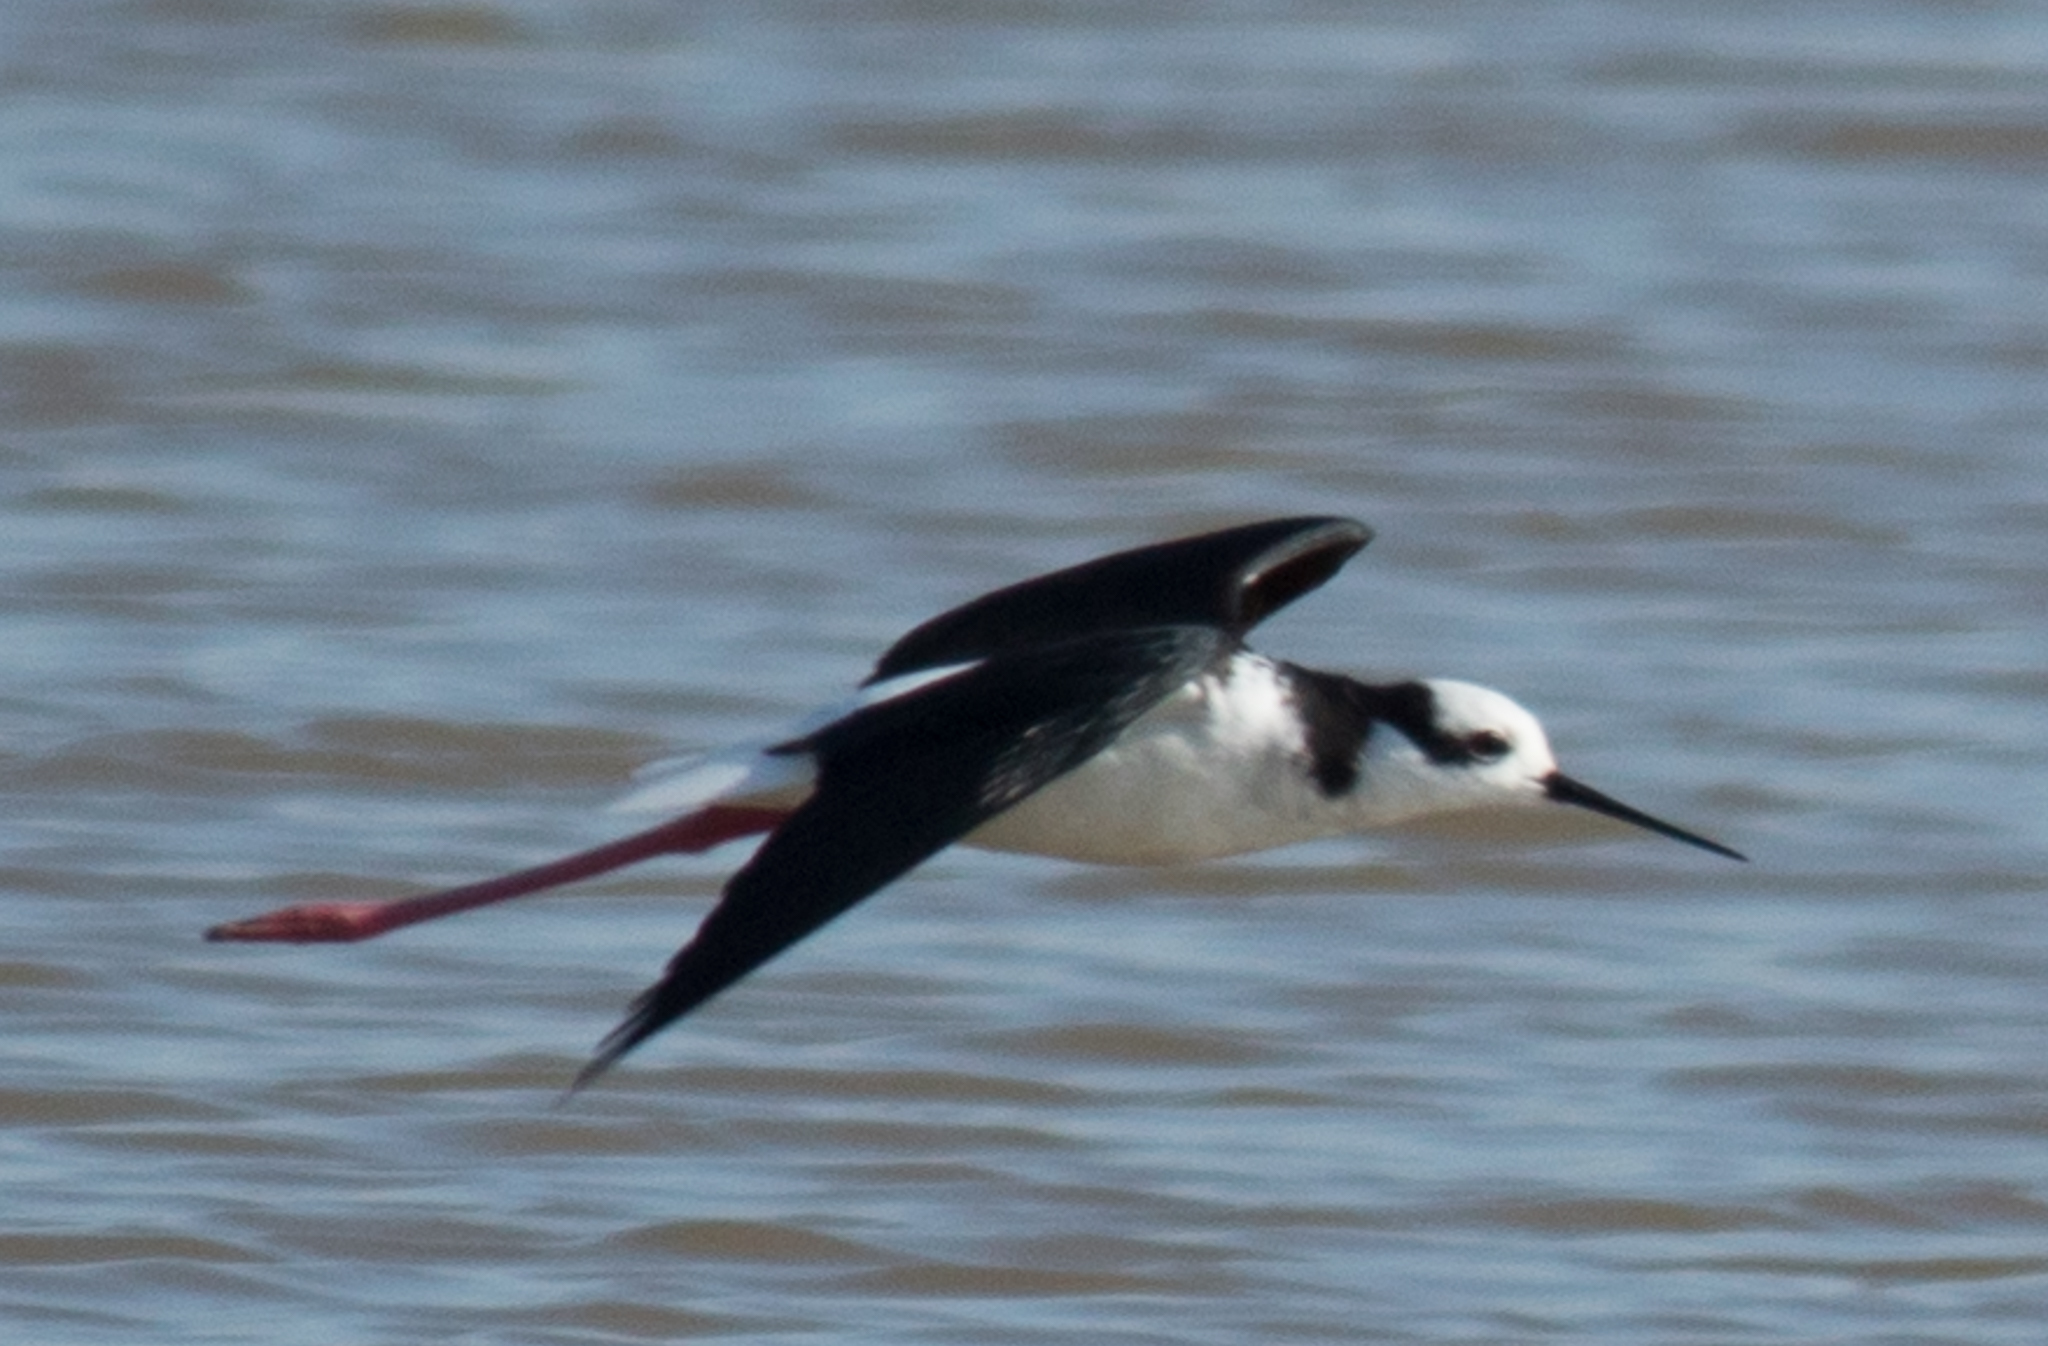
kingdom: Animalia
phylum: Chordata
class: Aves
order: Charadriiformes
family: Recurvirostridae
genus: Himantopus
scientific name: Himantopus mexicanus
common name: Black-necked stilt
